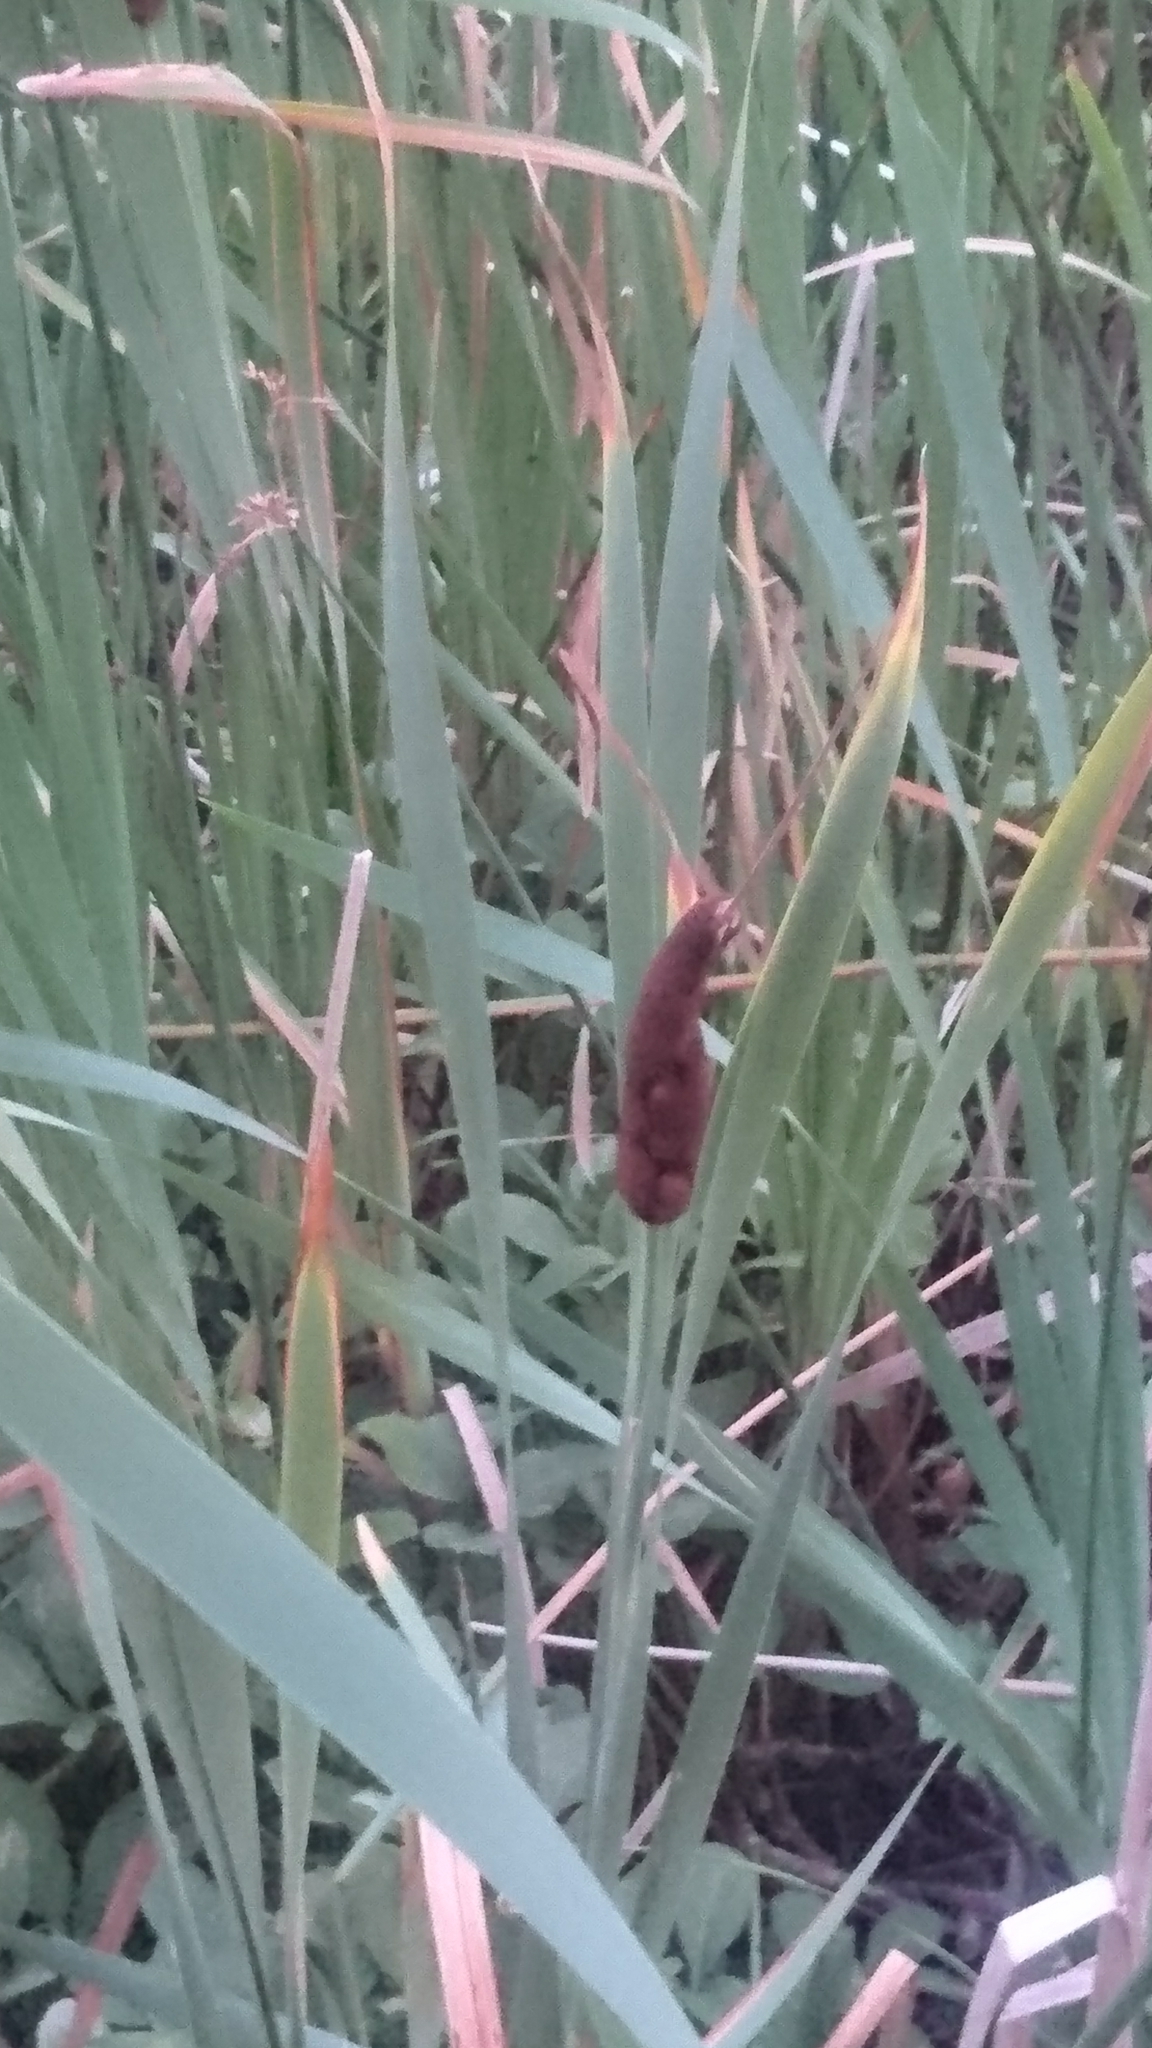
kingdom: Plantae
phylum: Tracheophyta
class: Liliopsida
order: Poales
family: Typhaceae
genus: Typha
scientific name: Typha latifolia
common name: Broadleaf cattail
